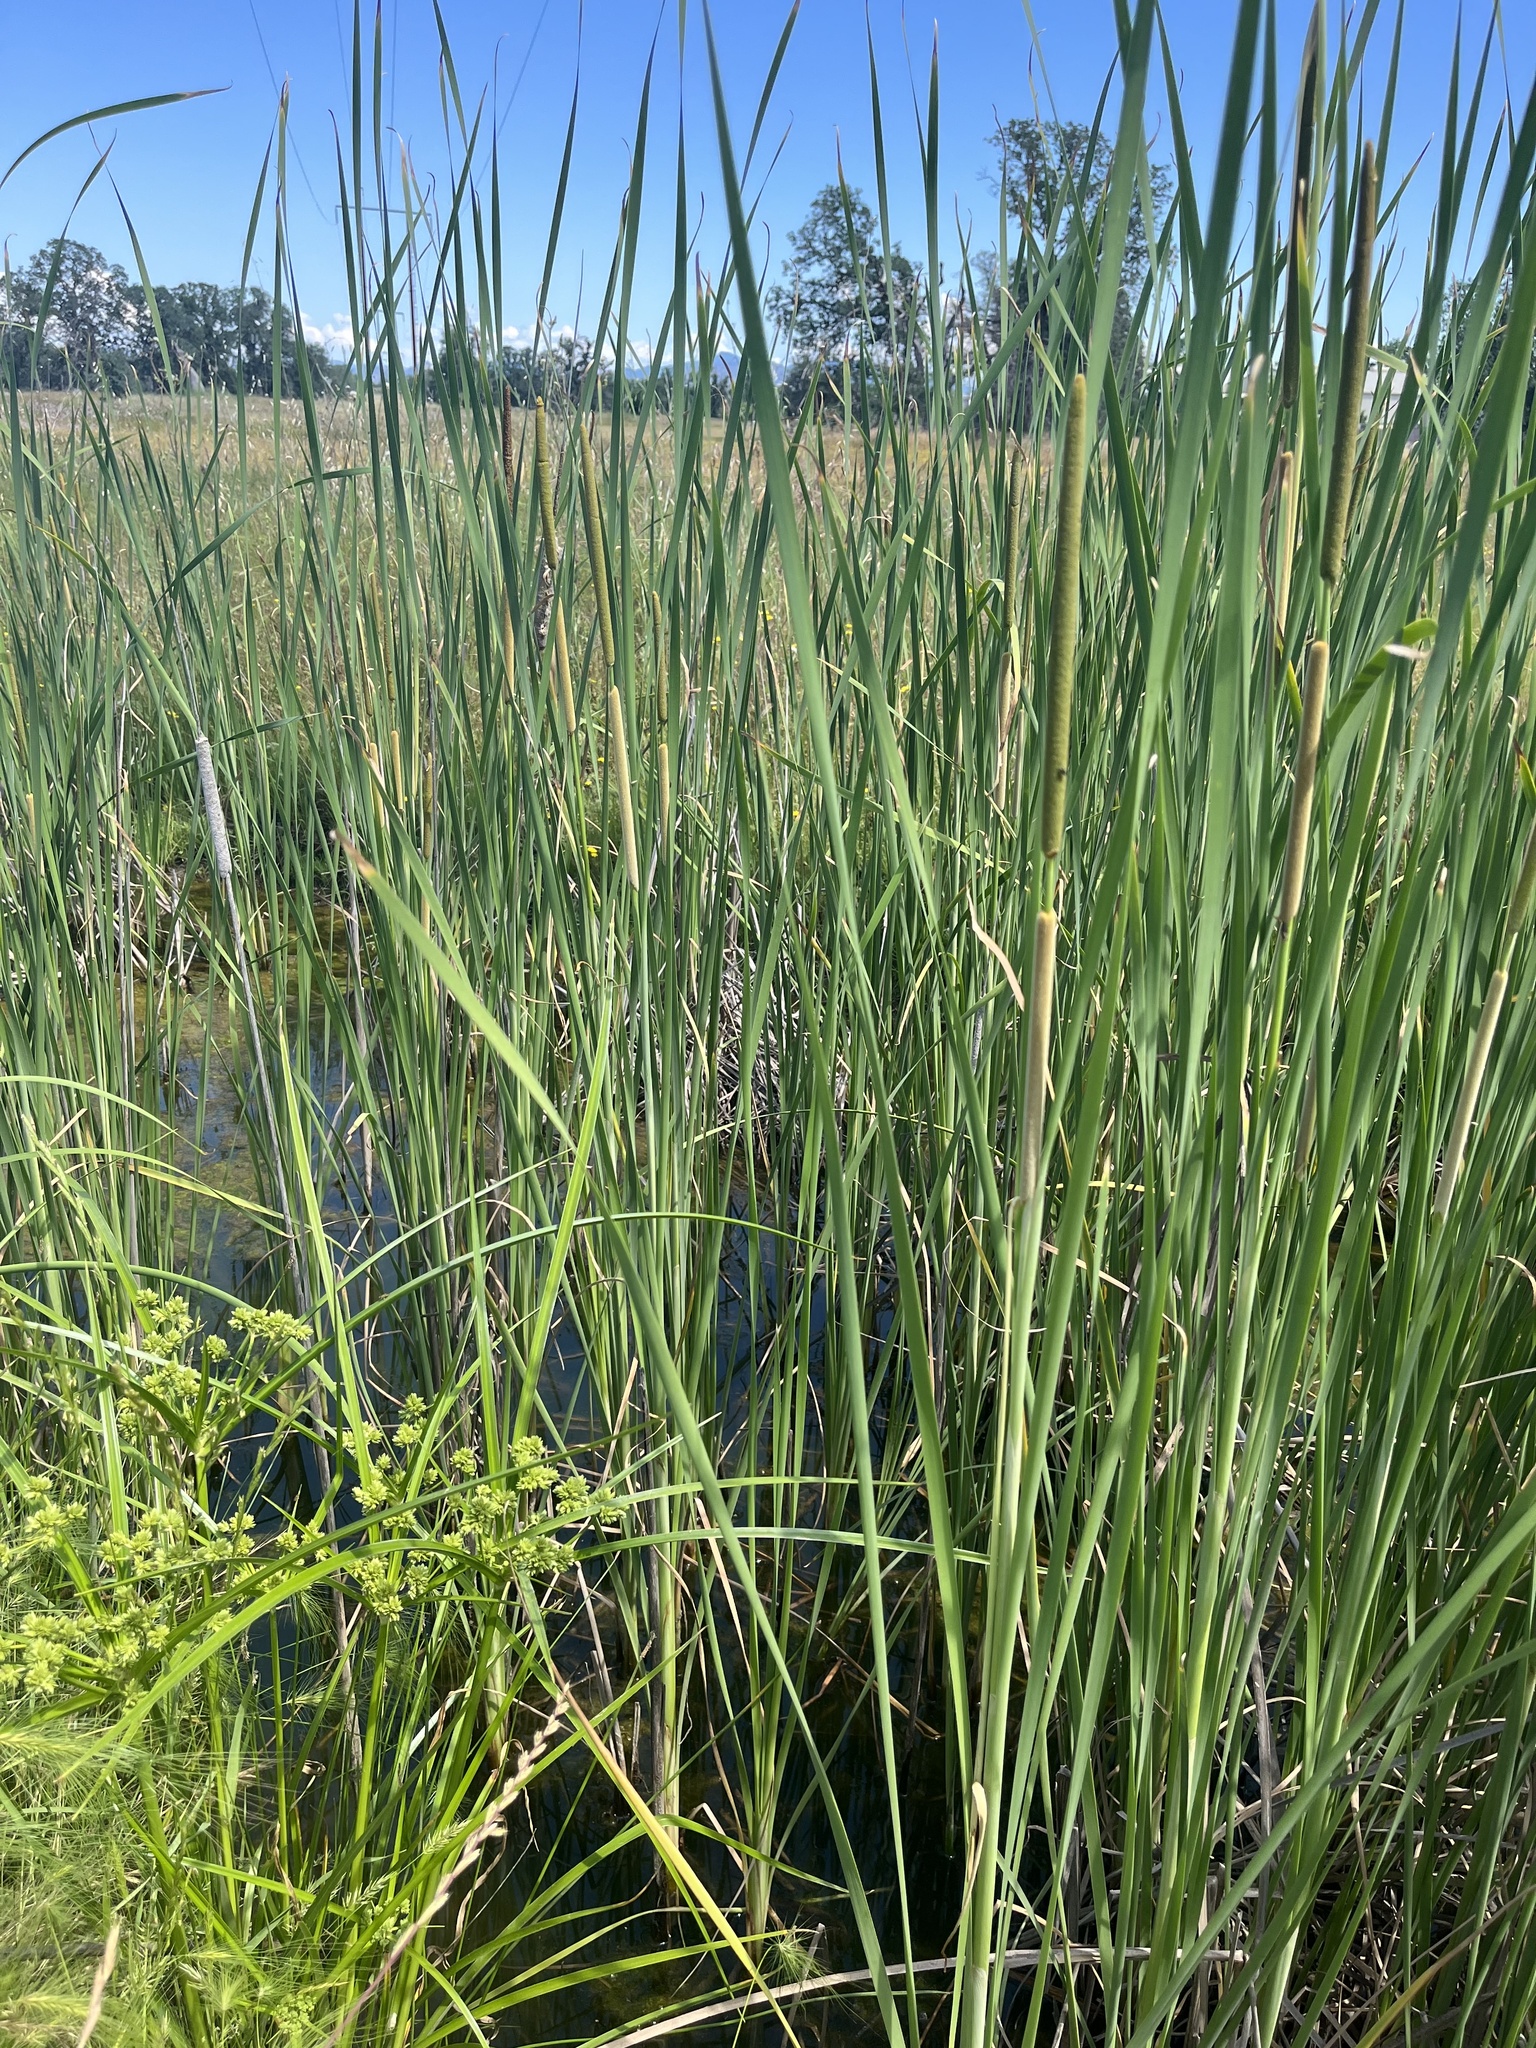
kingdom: Plantae
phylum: Tracheophyta
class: Liliopsida
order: Poales
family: Typhaceae
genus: Typha
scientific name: Typha angustifolia
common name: Lesser bulrush
